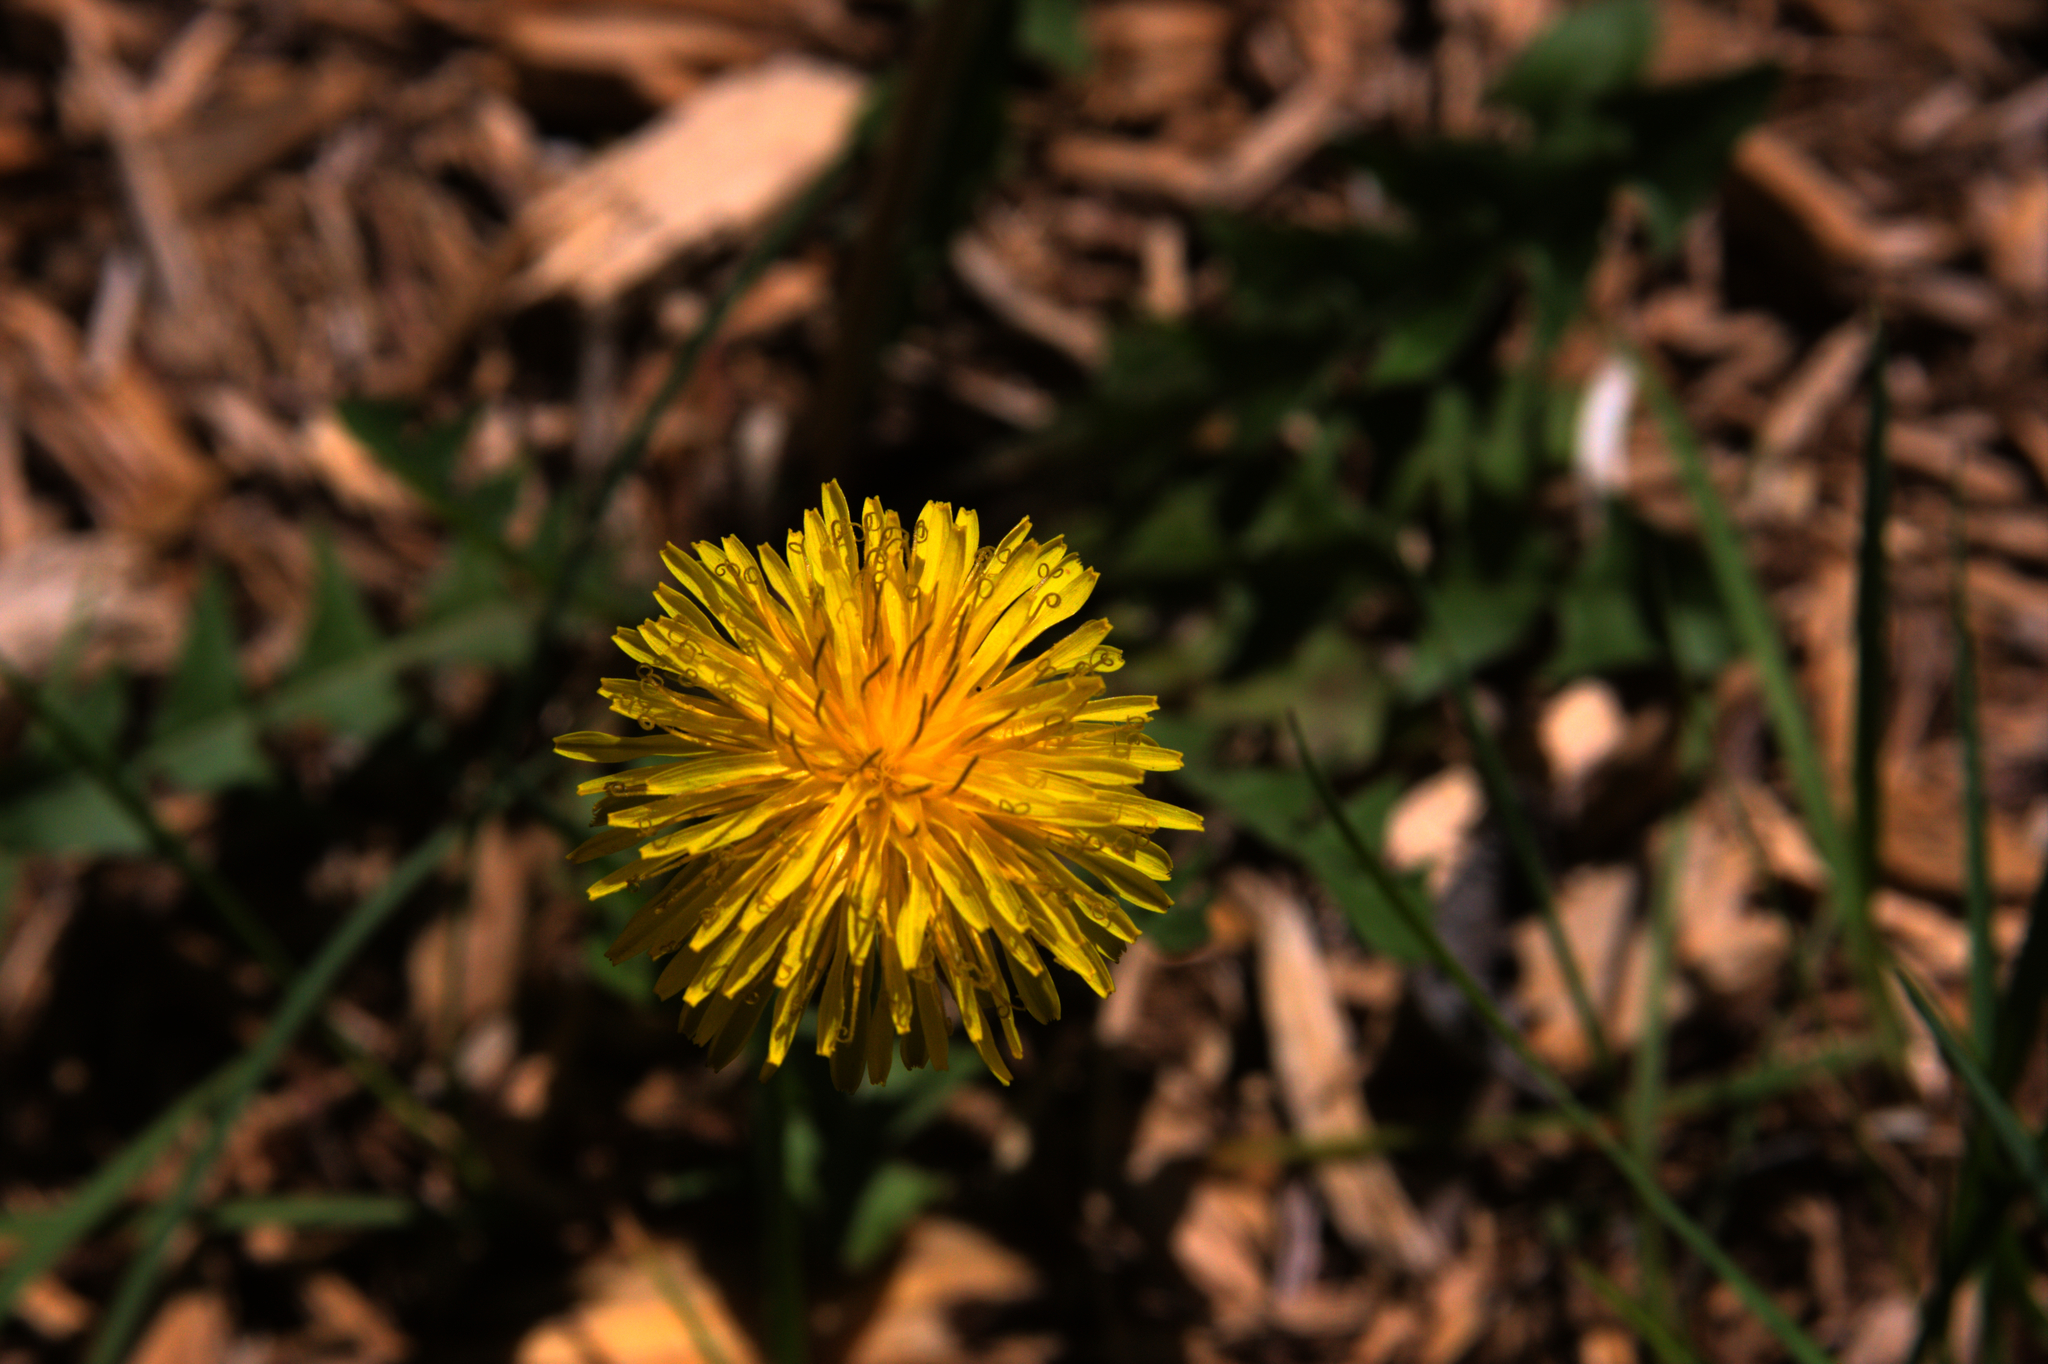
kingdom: Plantae
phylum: Tracheophyta
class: Magnoliopsida
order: Asterales
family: Asteraceae
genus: Taraxacum
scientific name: Taraxacum officinale
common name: Common dandelion
